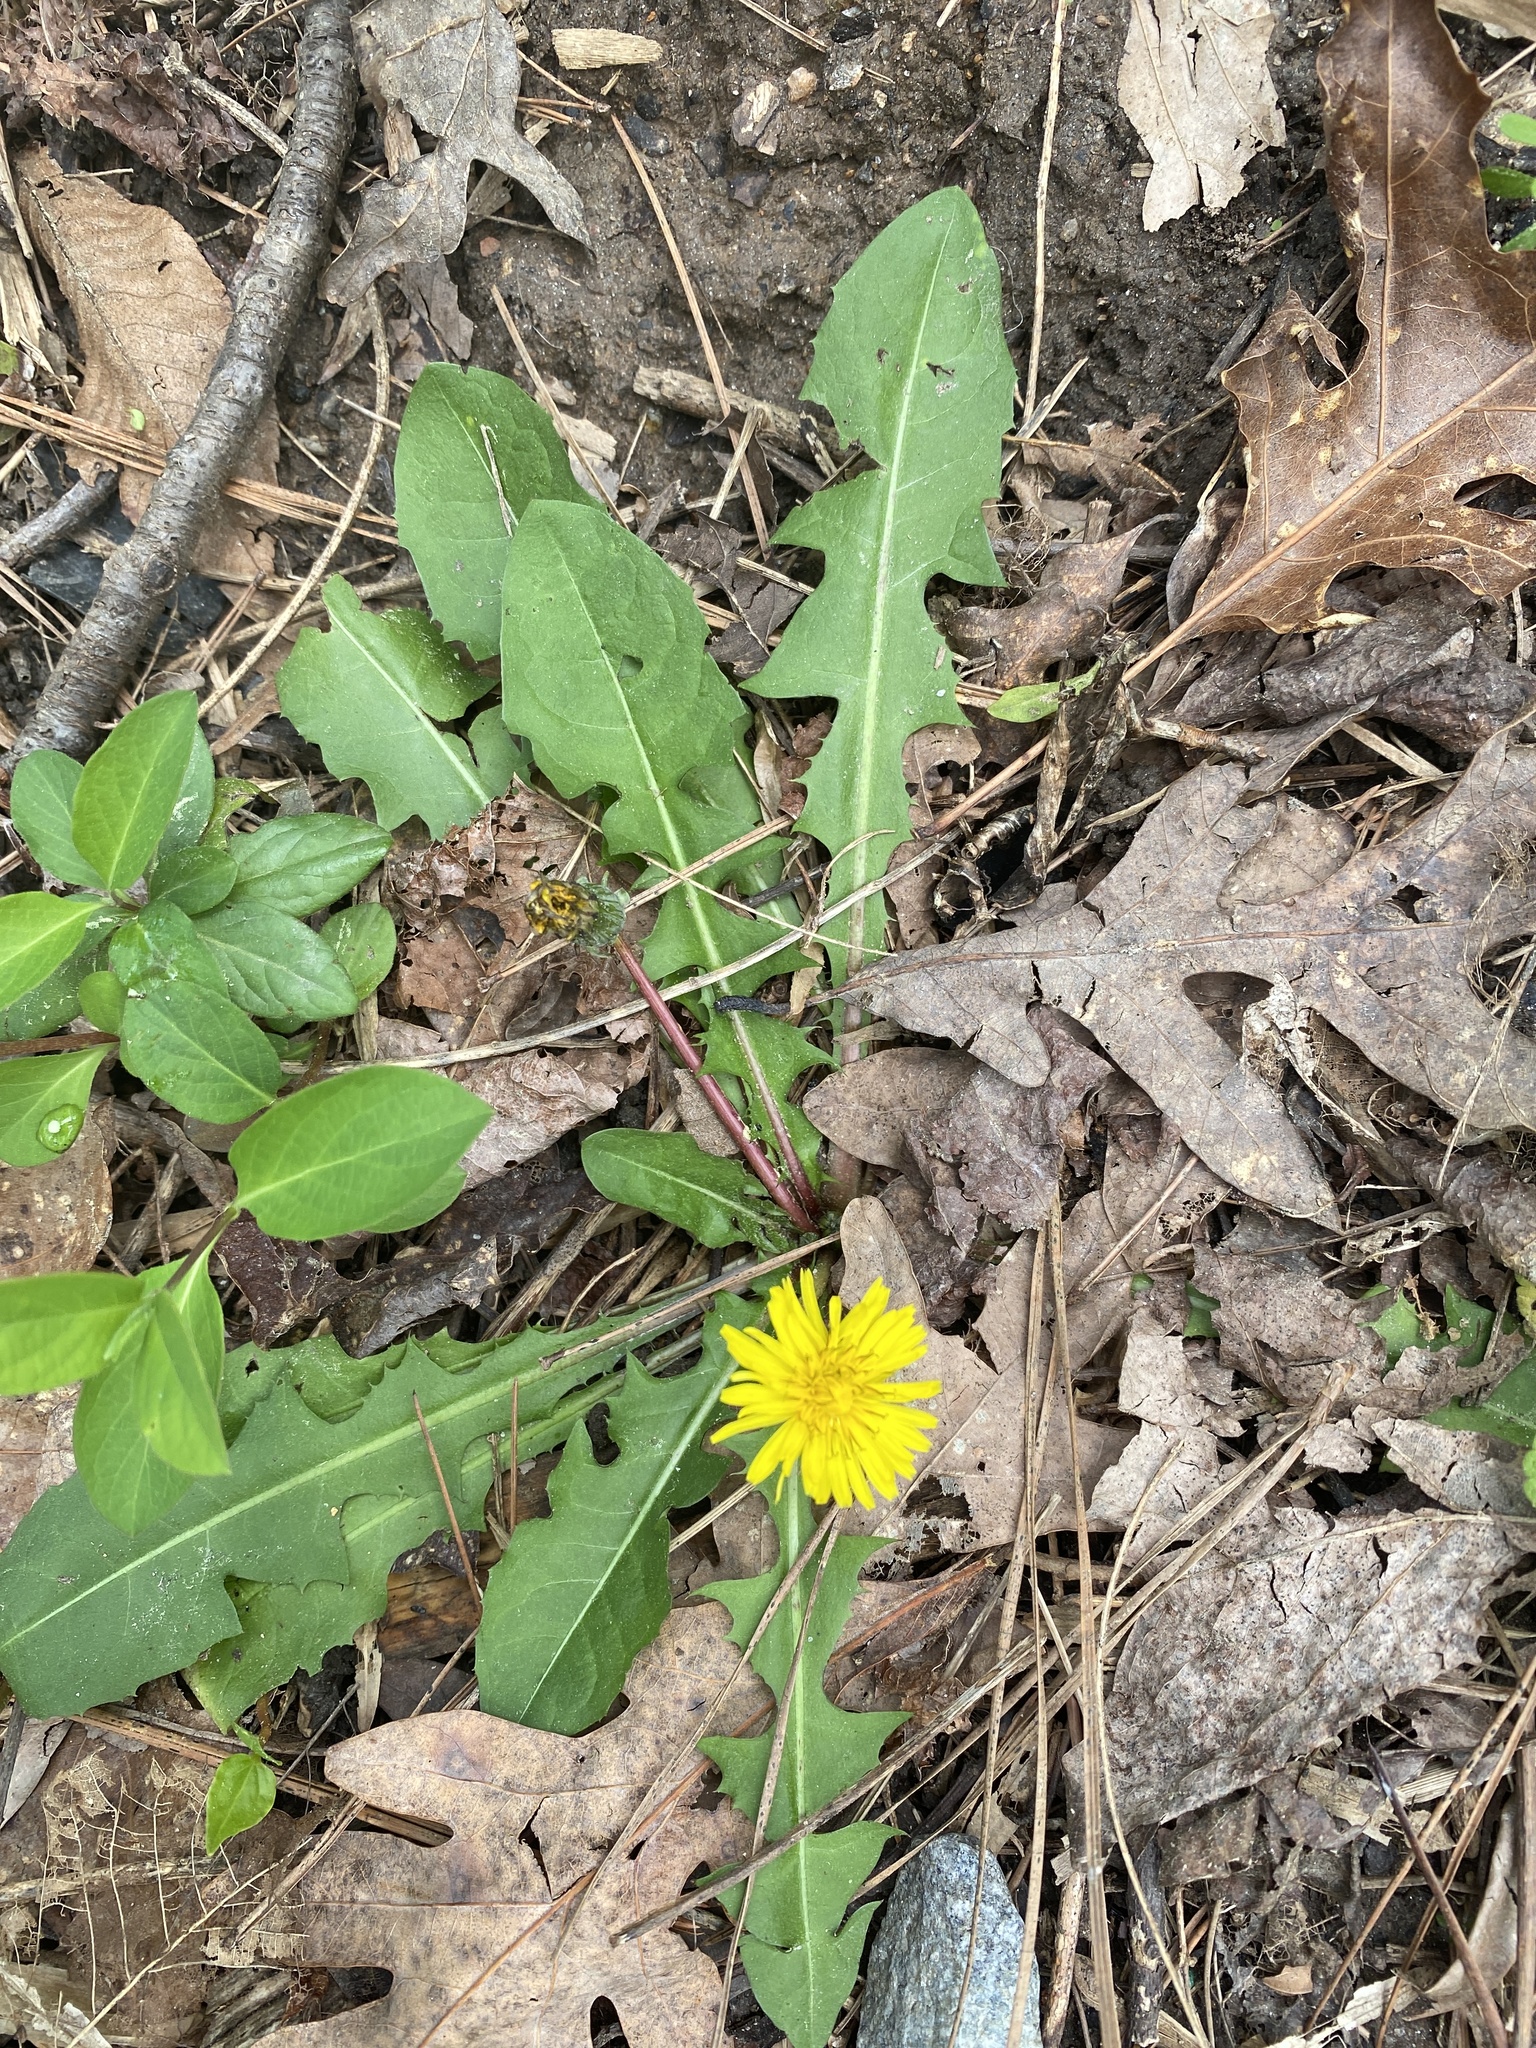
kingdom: Plantae
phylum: Tracheophyta
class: Magnoliopsida
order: Asterales
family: Asteraceae
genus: Taraxacum
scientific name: Taraxacum officinale
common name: Common dandelion
